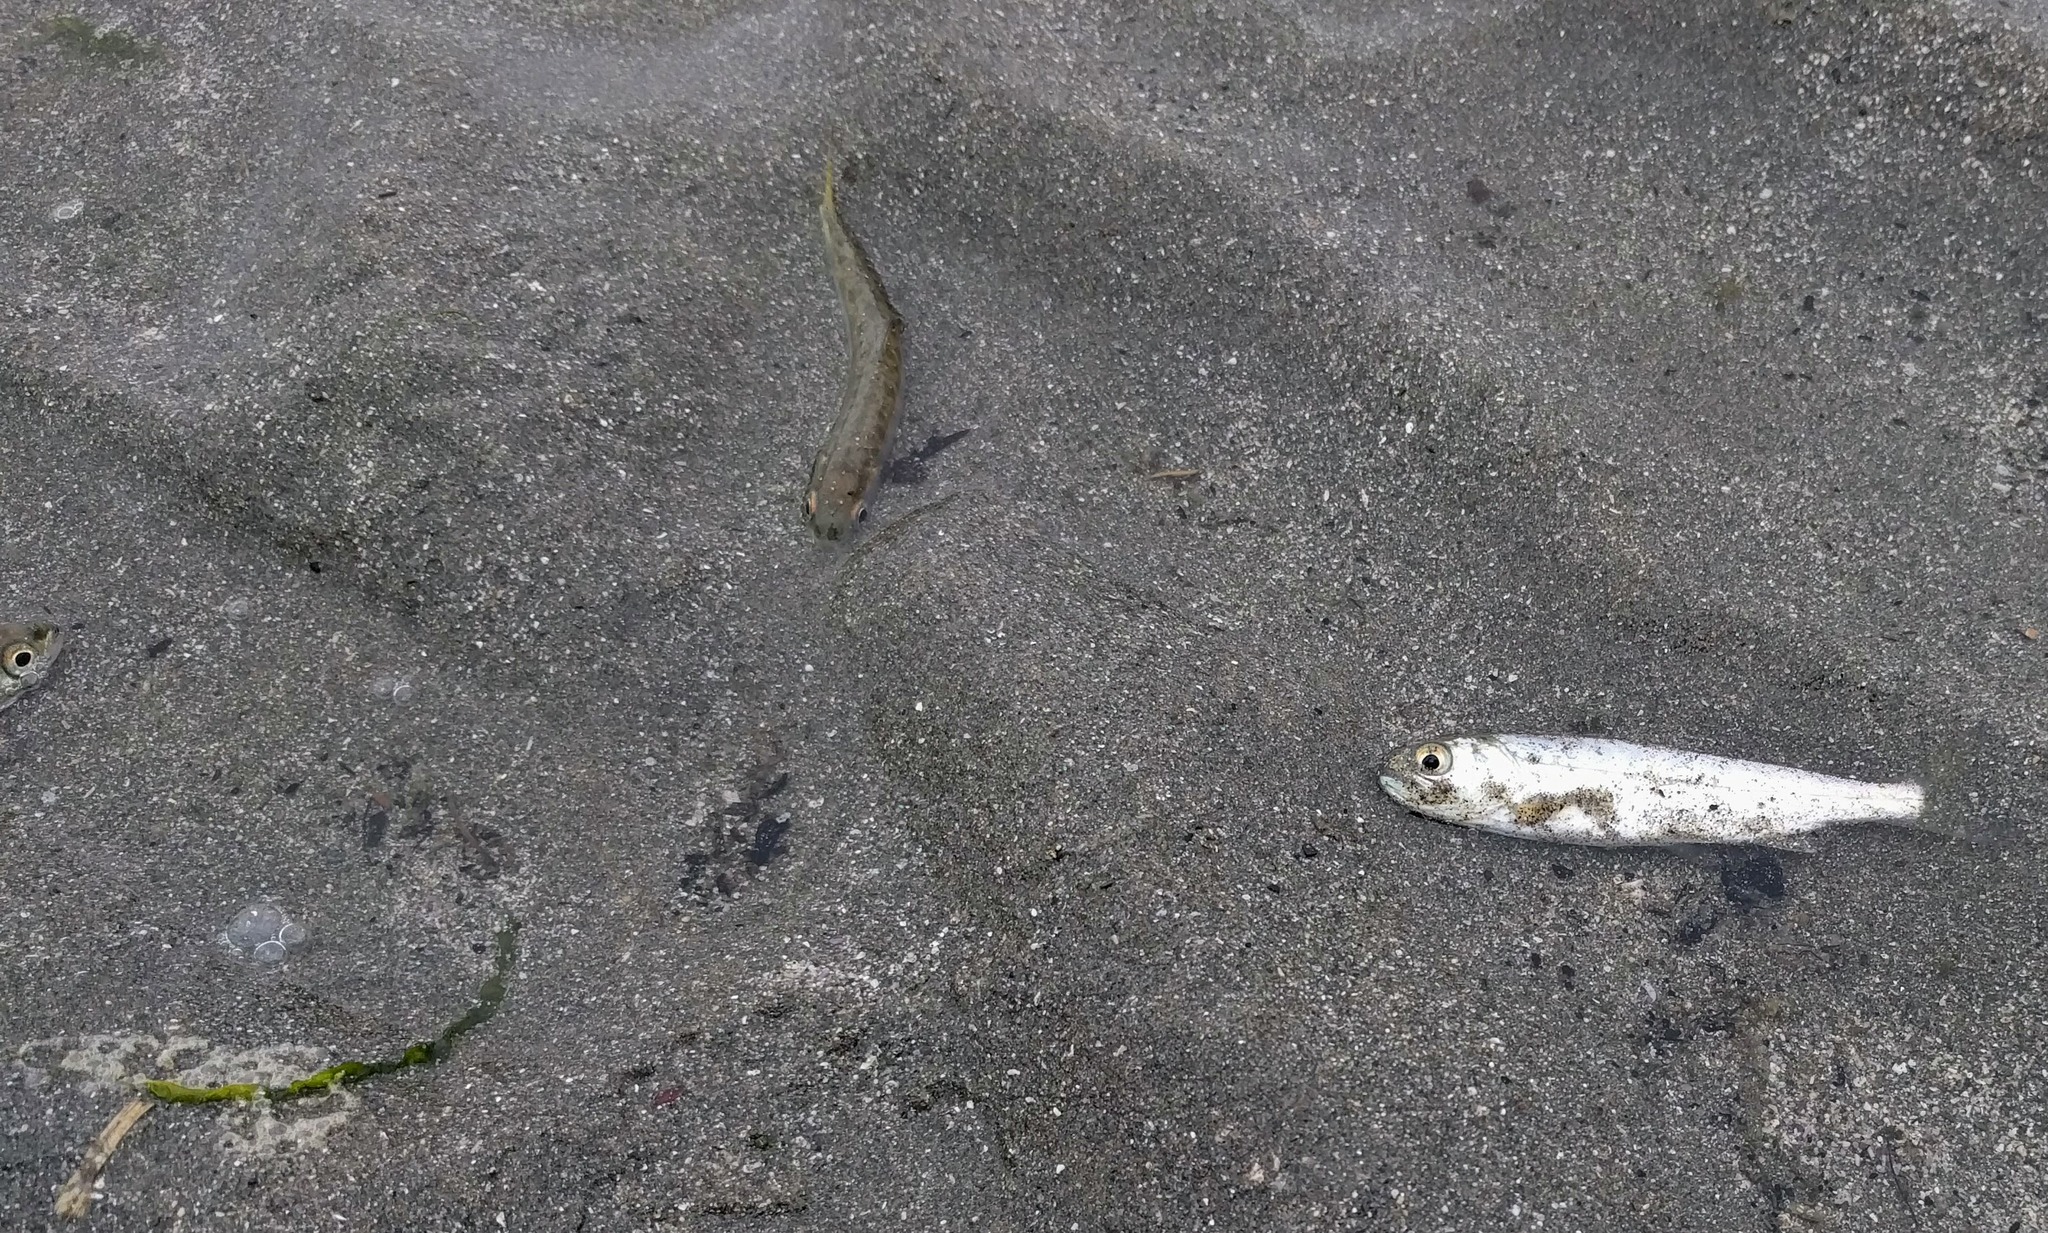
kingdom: Animalia
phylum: Chordata
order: Salmoniformes
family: Salmonidae
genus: Oncorhynchus
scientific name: Oncorhynchus kisutch
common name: Coho salmon
